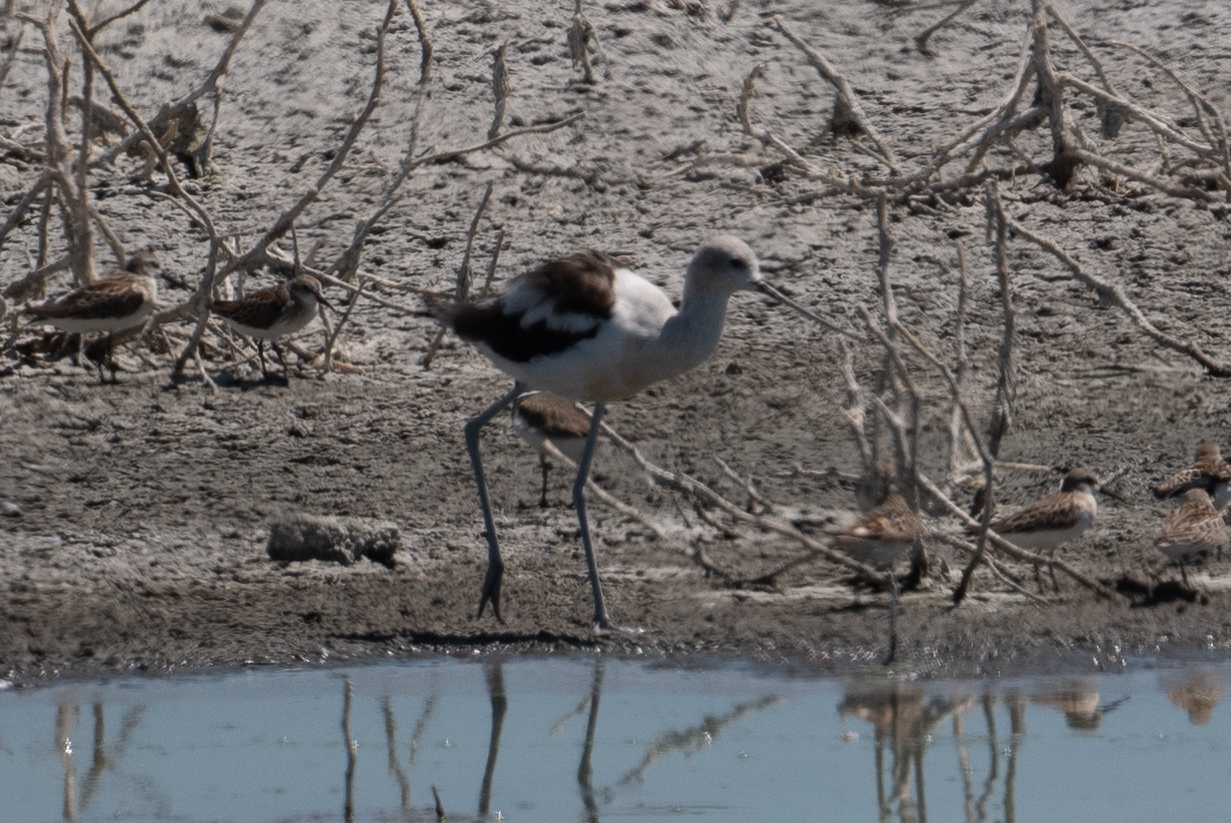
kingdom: Animalia
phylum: Chordata
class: Aves
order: Charadriiformes
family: Recurvirostridae
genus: Recurvirostra
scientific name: Recurvirostra americana
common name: American avocet
